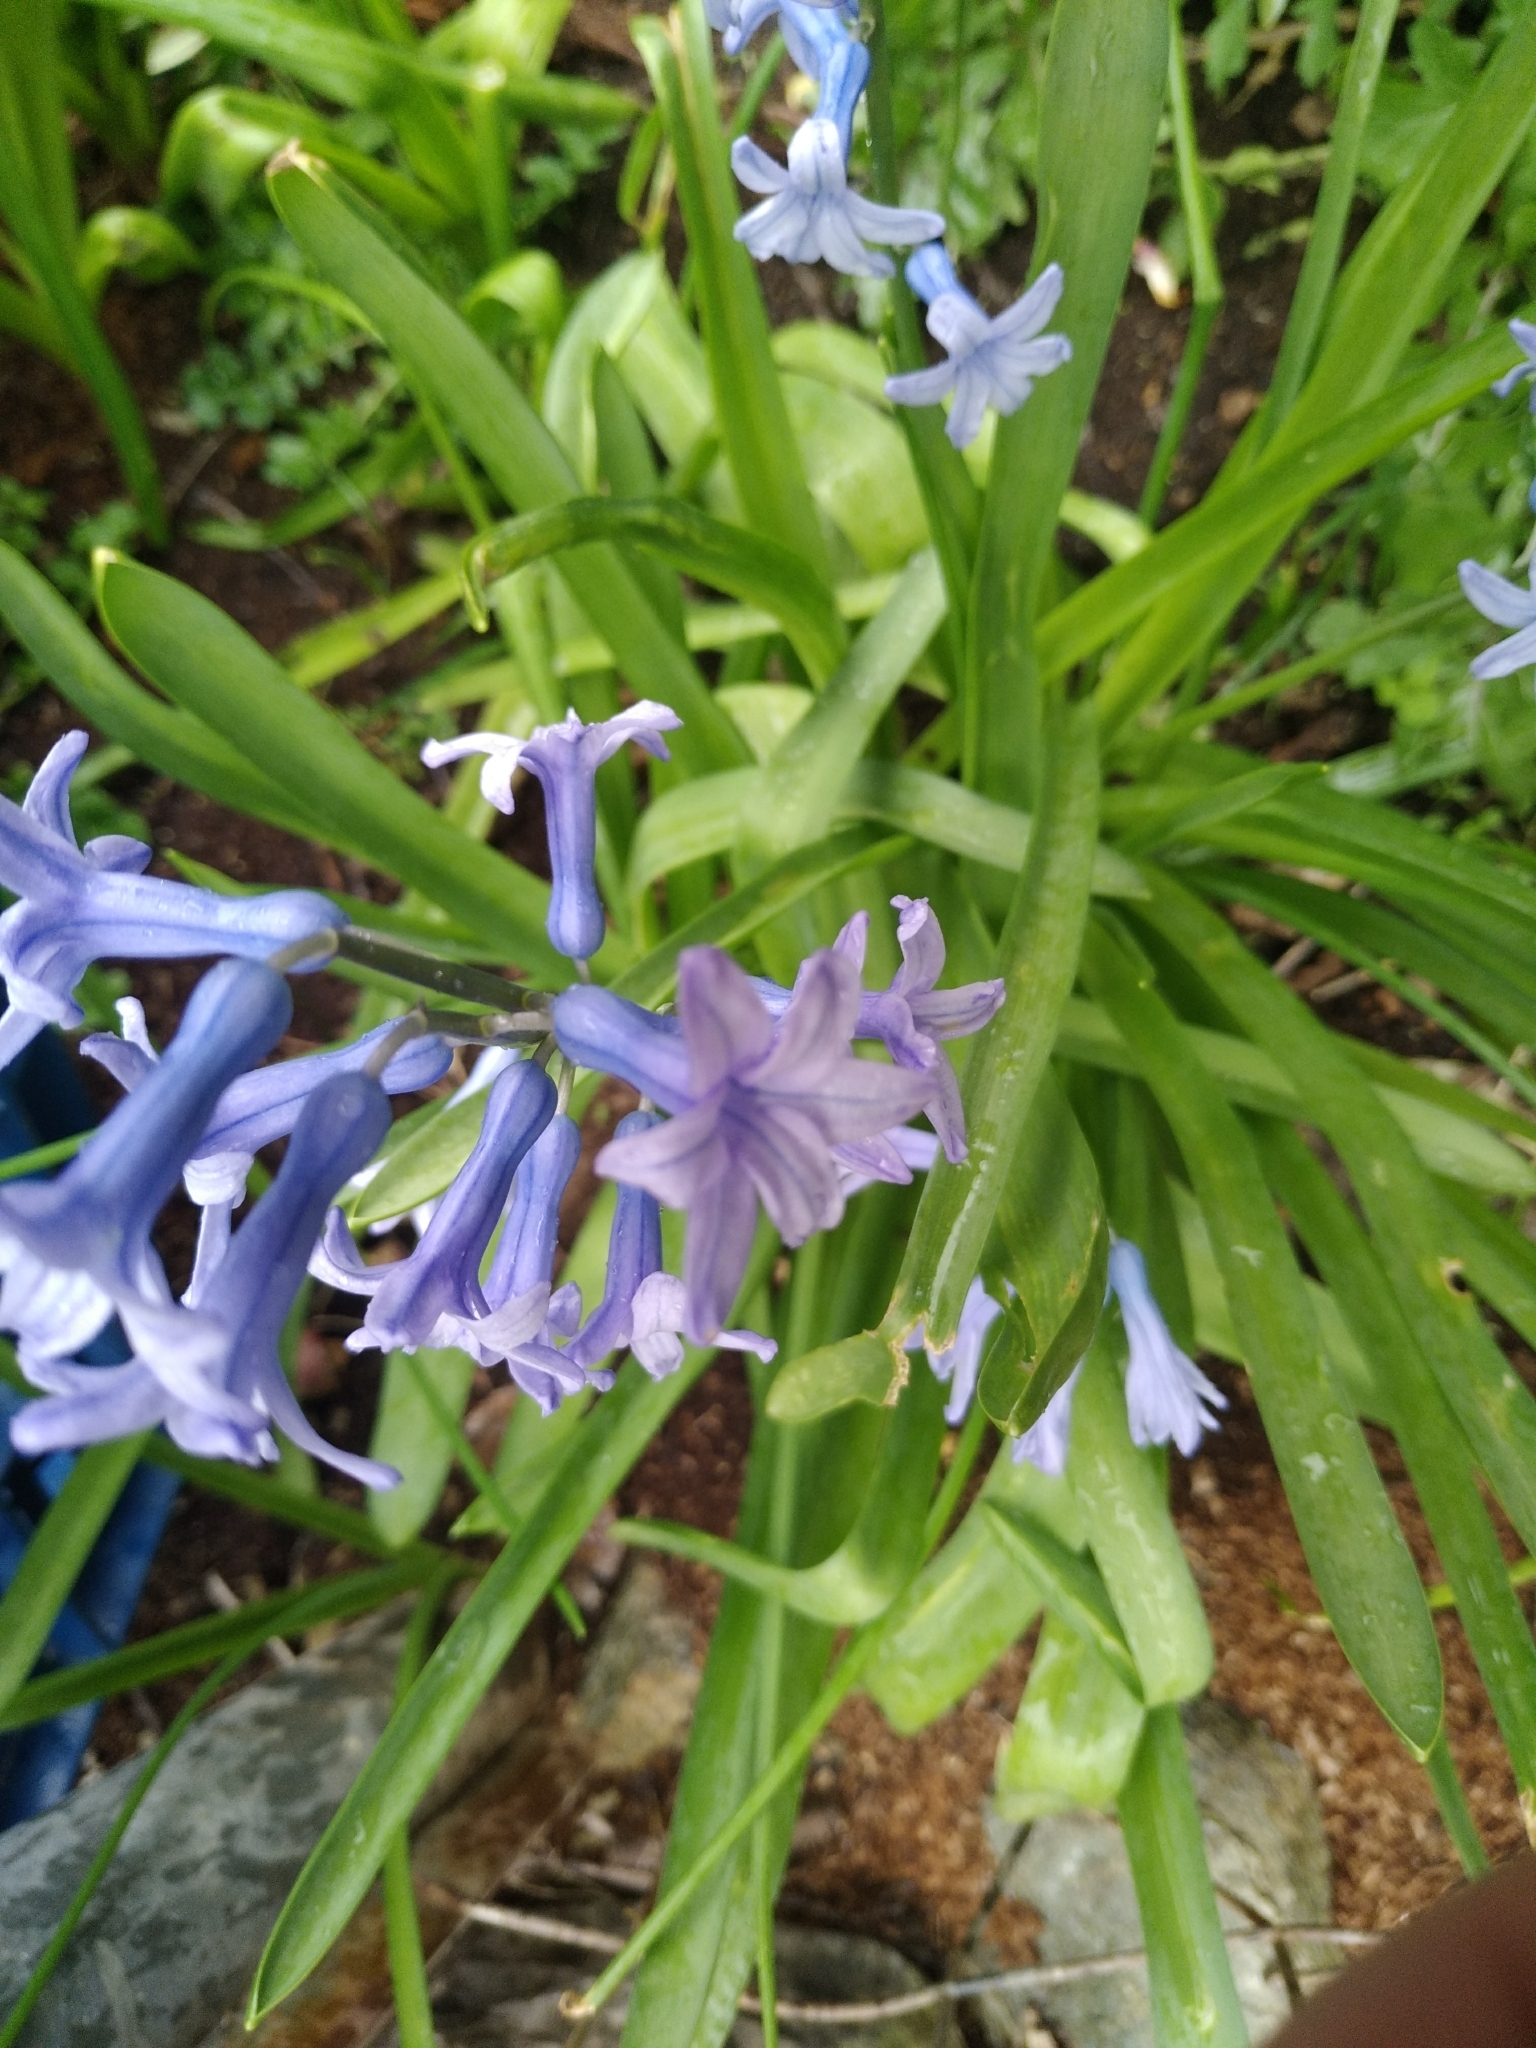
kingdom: Plantae
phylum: Tracheophyta
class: Liliopsida
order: Asparagales
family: Asparagaceae
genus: Hyacinthus
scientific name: Hyacinthus orientalis
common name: Hyacinth
